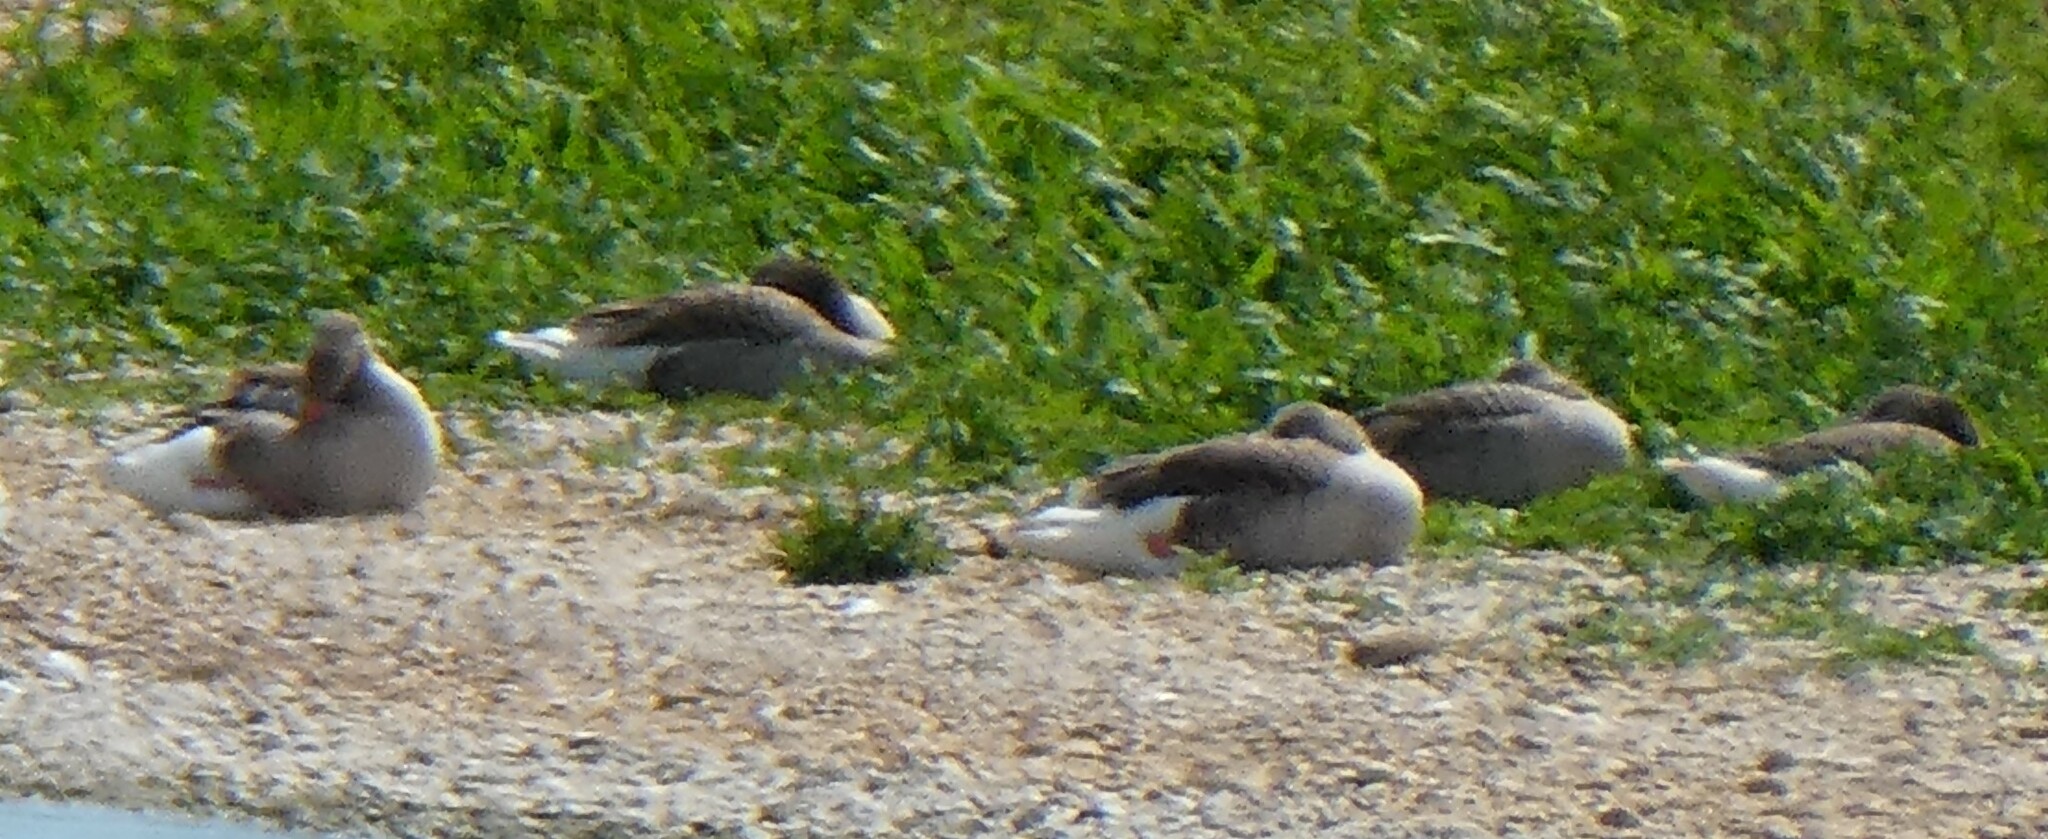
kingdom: Animalia
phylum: Chordata
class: Aves
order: Anseriformes
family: Anatidae
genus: Anser
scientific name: Anser anser
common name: Greylag goose
